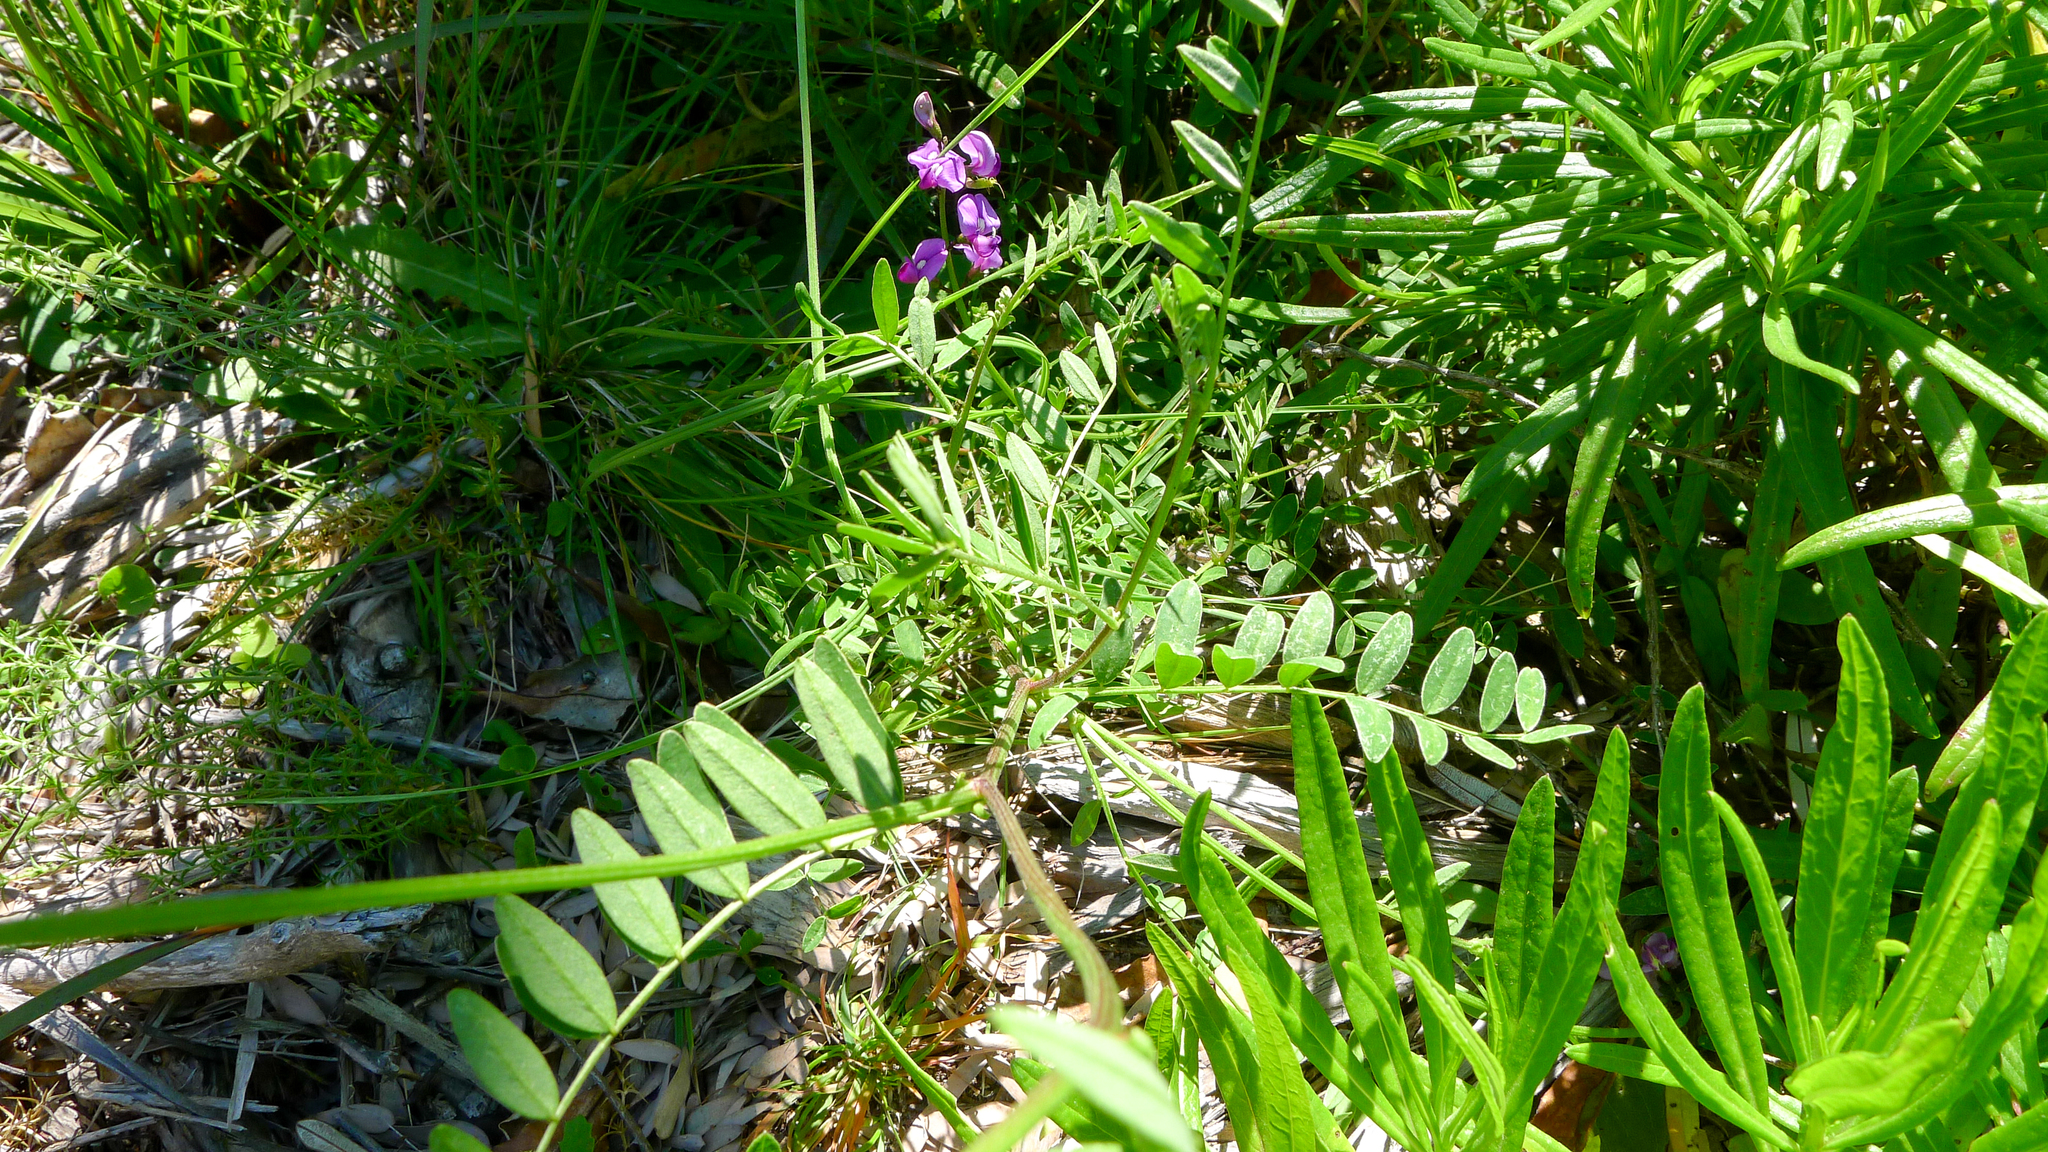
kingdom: Plantae
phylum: Tracheophyta
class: Magnoliopsida
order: Fabales
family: Fabaceae
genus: Swainsona
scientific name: Swainsona lessertiifolia
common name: Bog-pea
